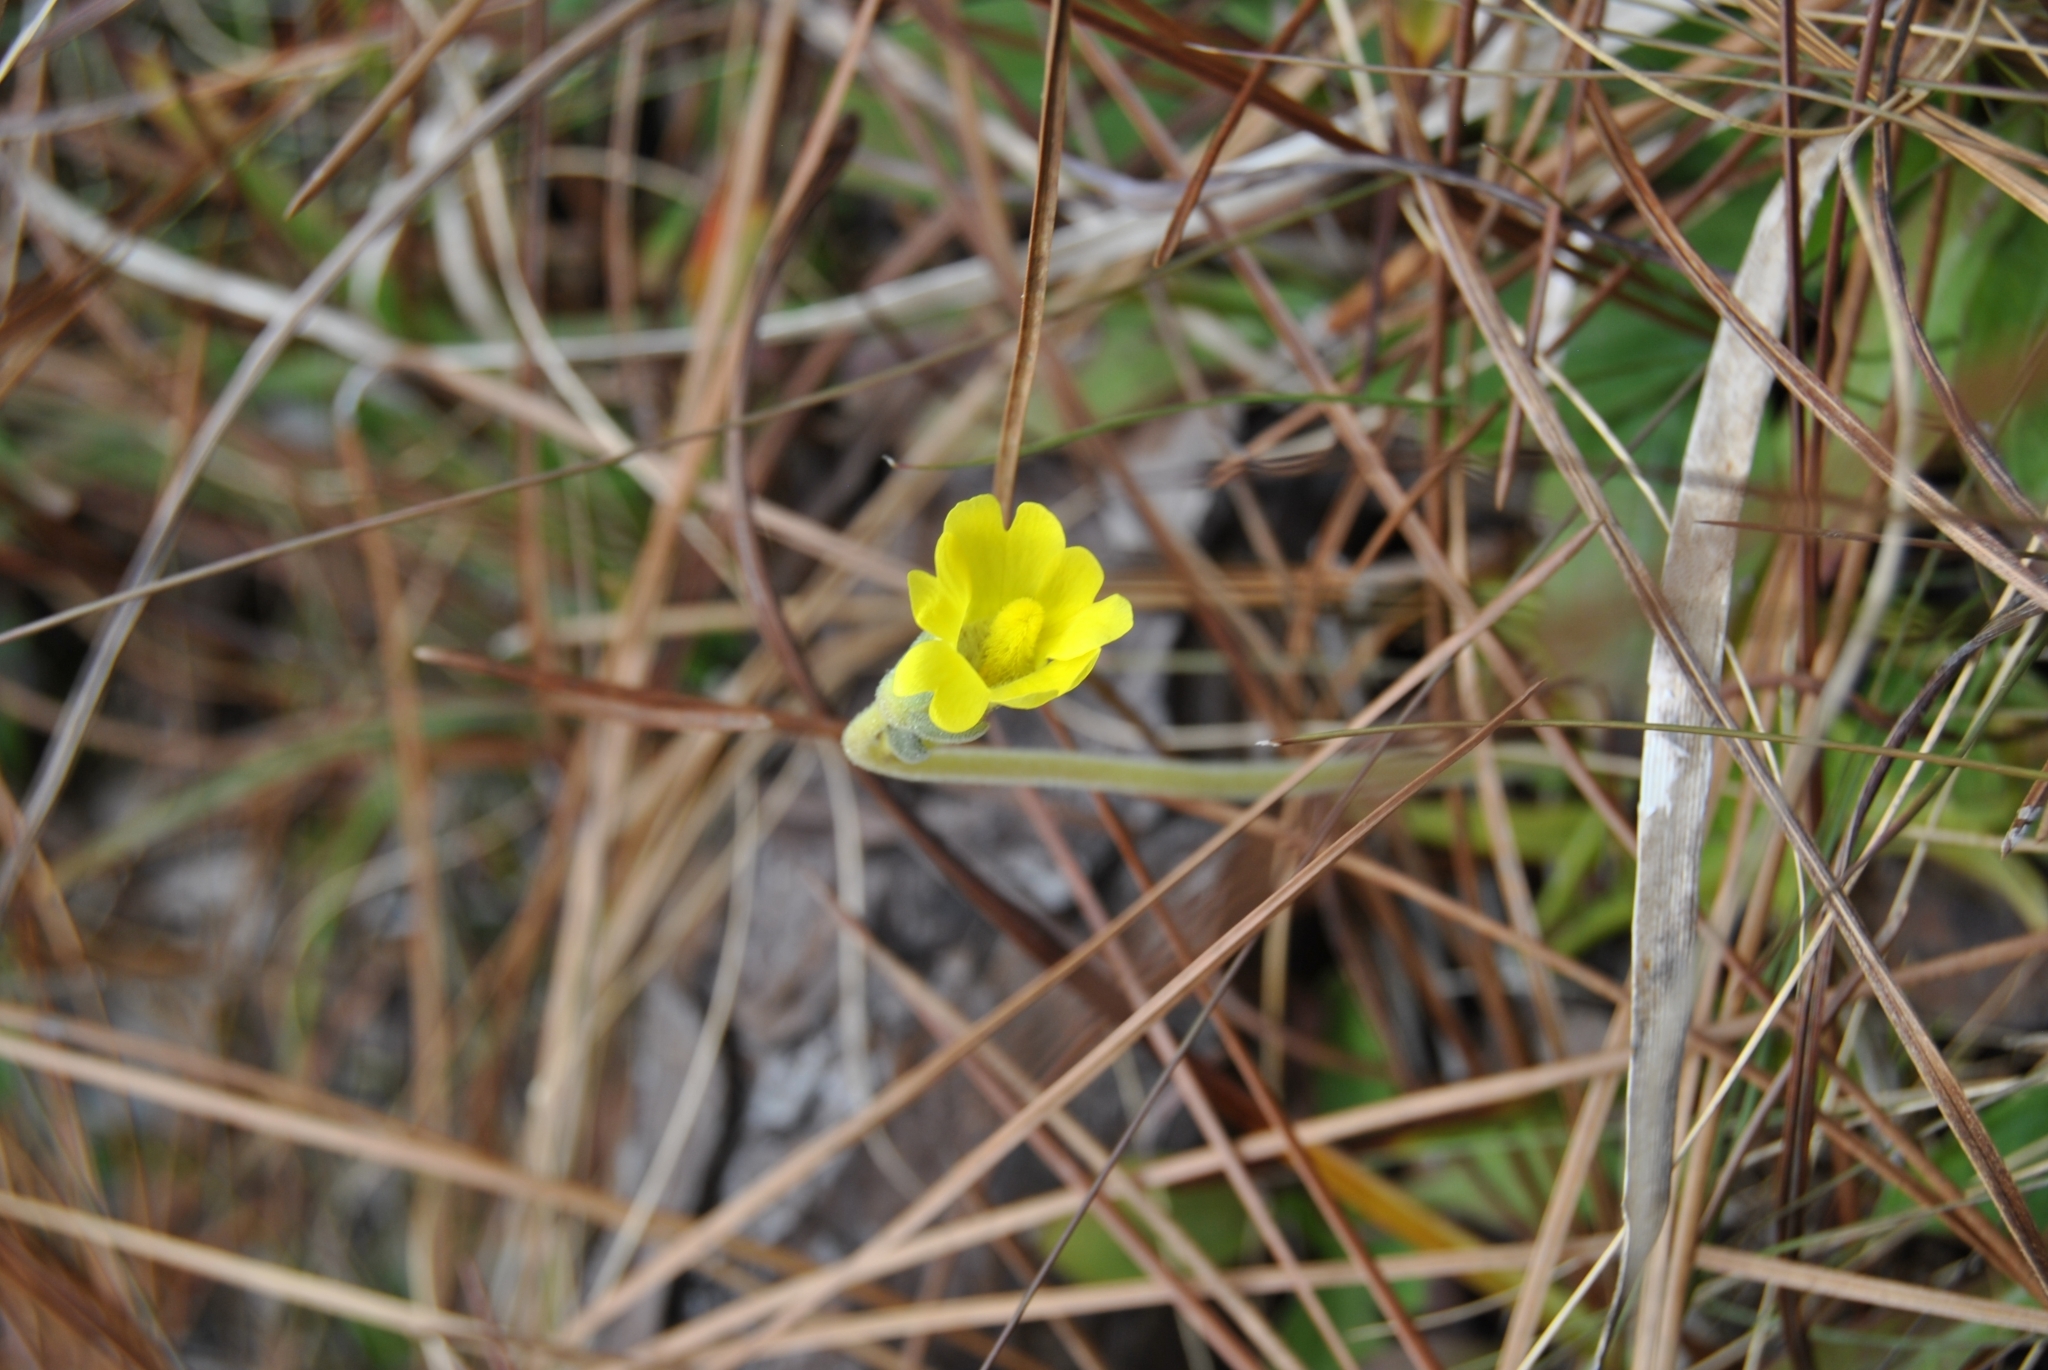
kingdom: Plantae
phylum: Tracheophyta
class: Magnoliopsida
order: Lamiales
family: Lentibulariaceae
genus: Pinguicula
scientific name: Pinguicula lutea
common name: Yellow butterwort
